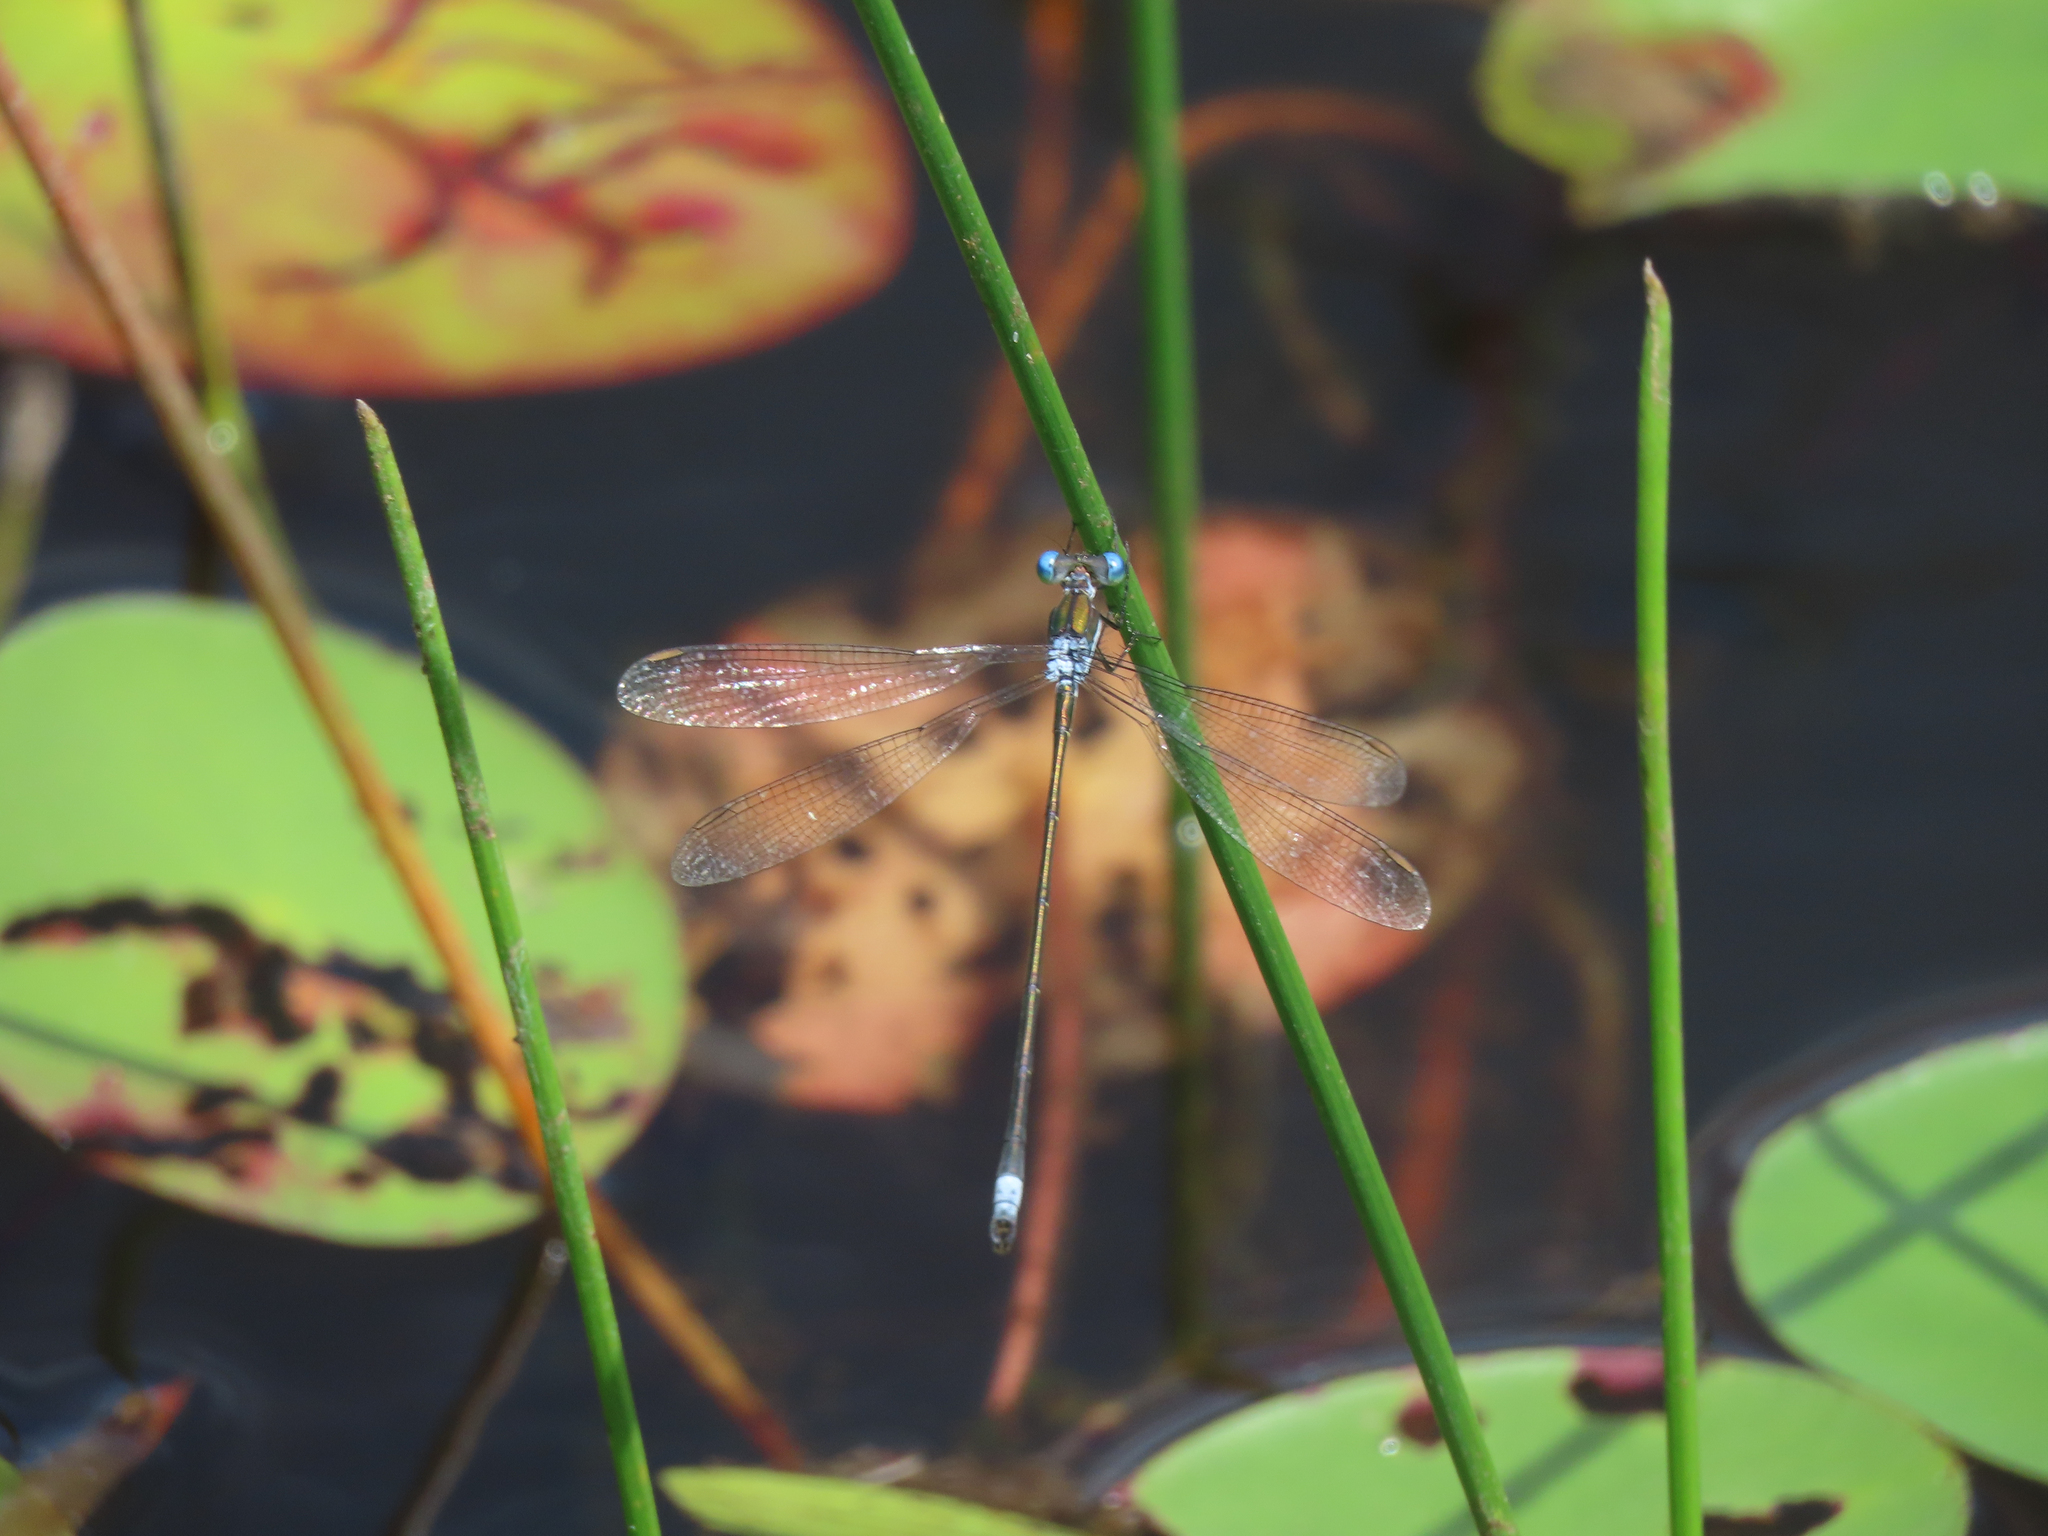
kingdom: Animalia
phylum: Arthropoda
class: Insecta
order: Odonata
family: Lestidae
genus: Lestes
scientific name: Lestes vigilax
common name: Swamp spreadwing
